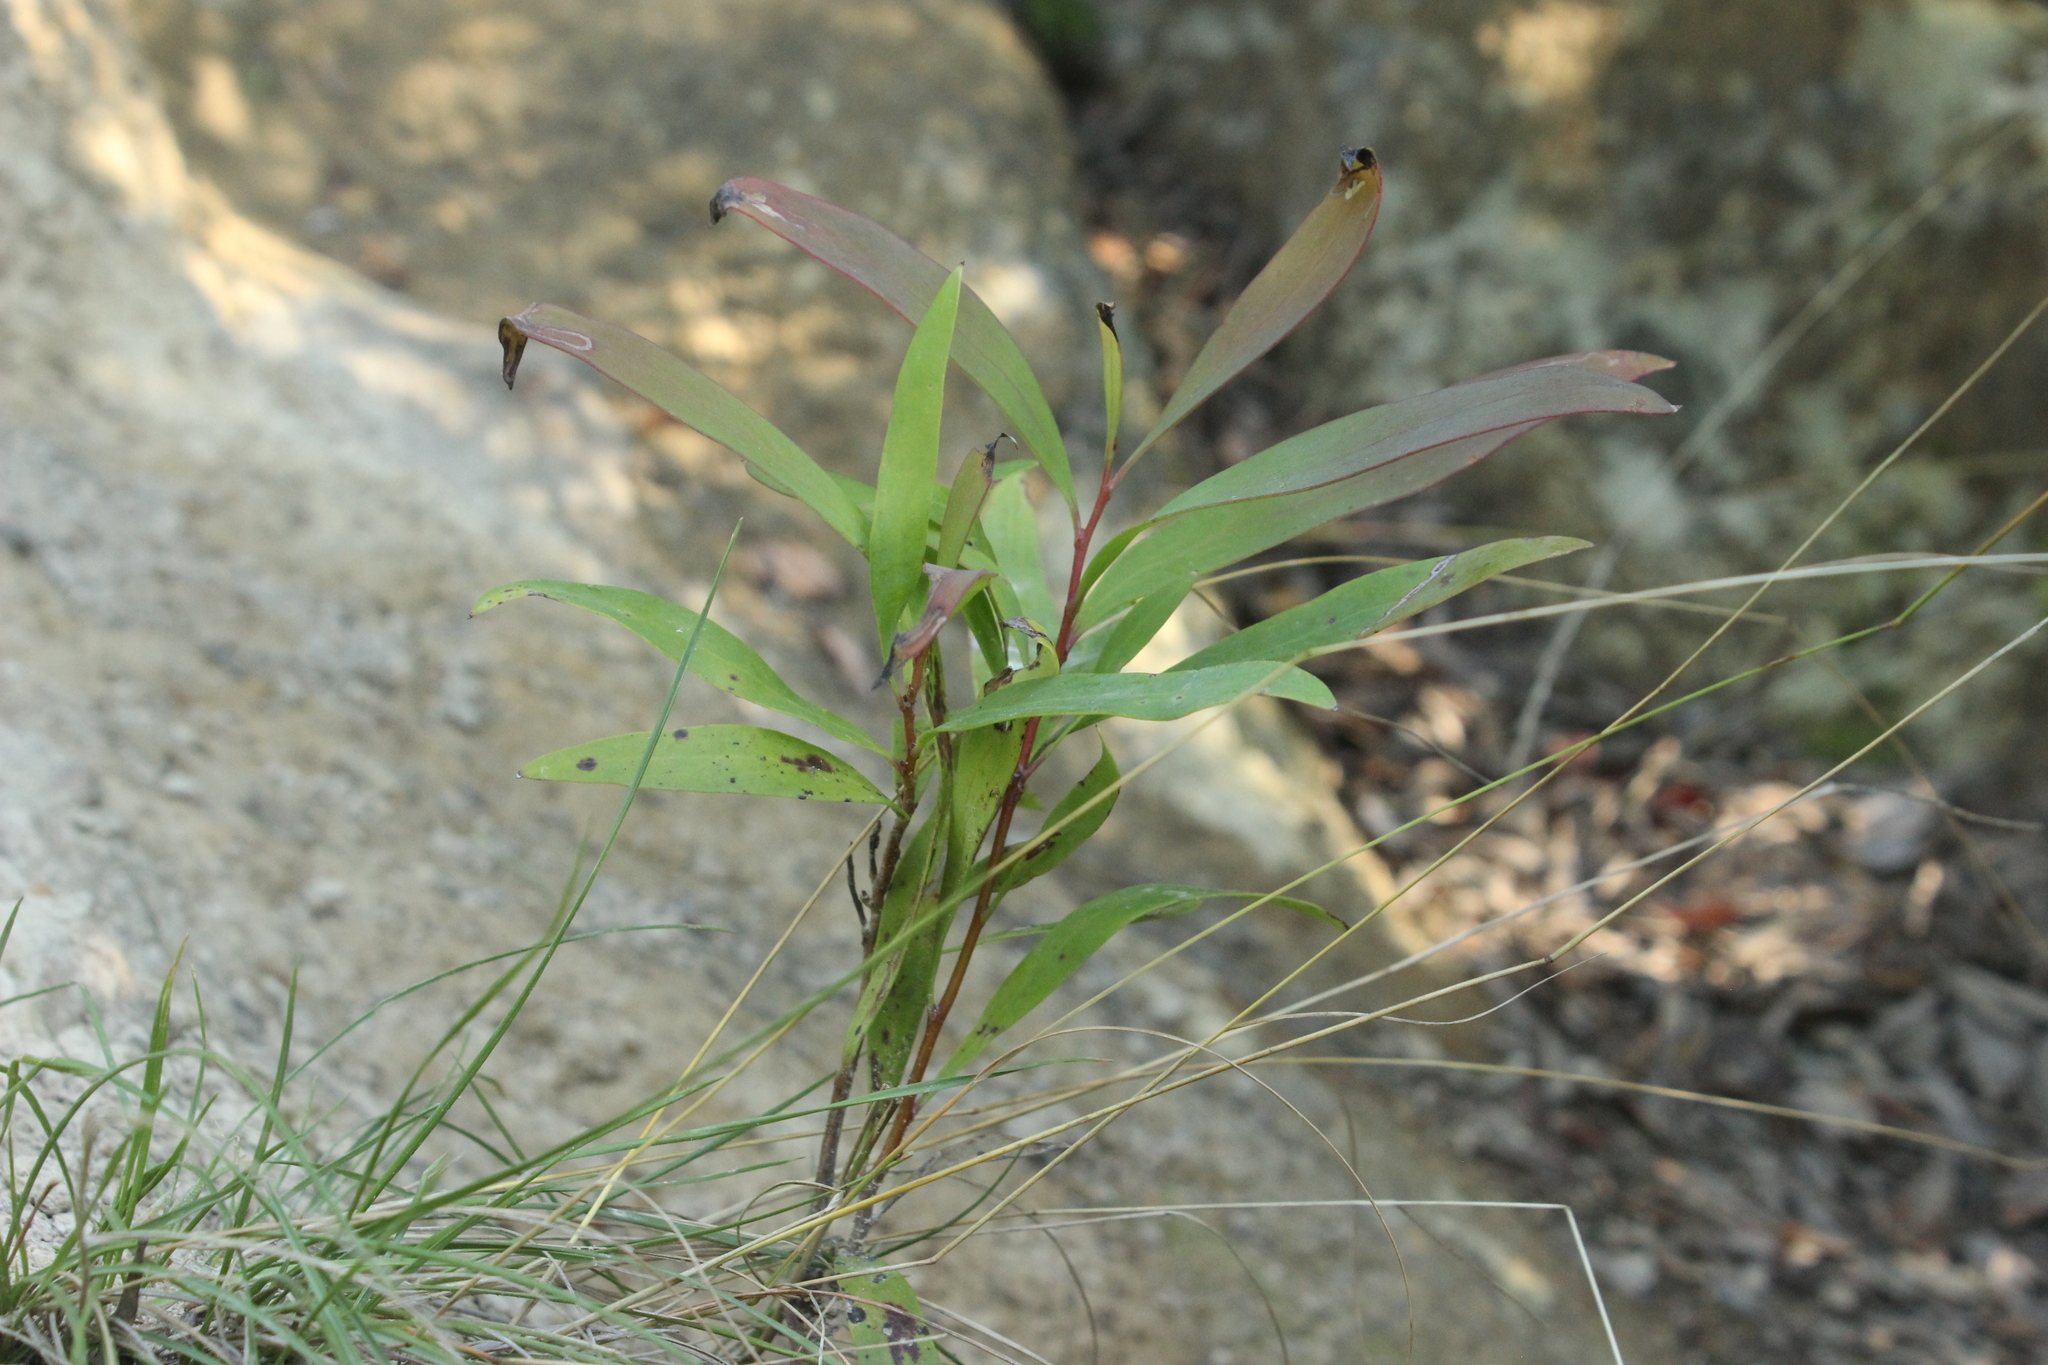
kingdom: Plantae
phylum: Tracheophyta
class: Magnoliopsida
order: Proteales
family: Proteaceae
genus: Hakea
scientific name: Hakea salicifolia
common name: Willow hakea
